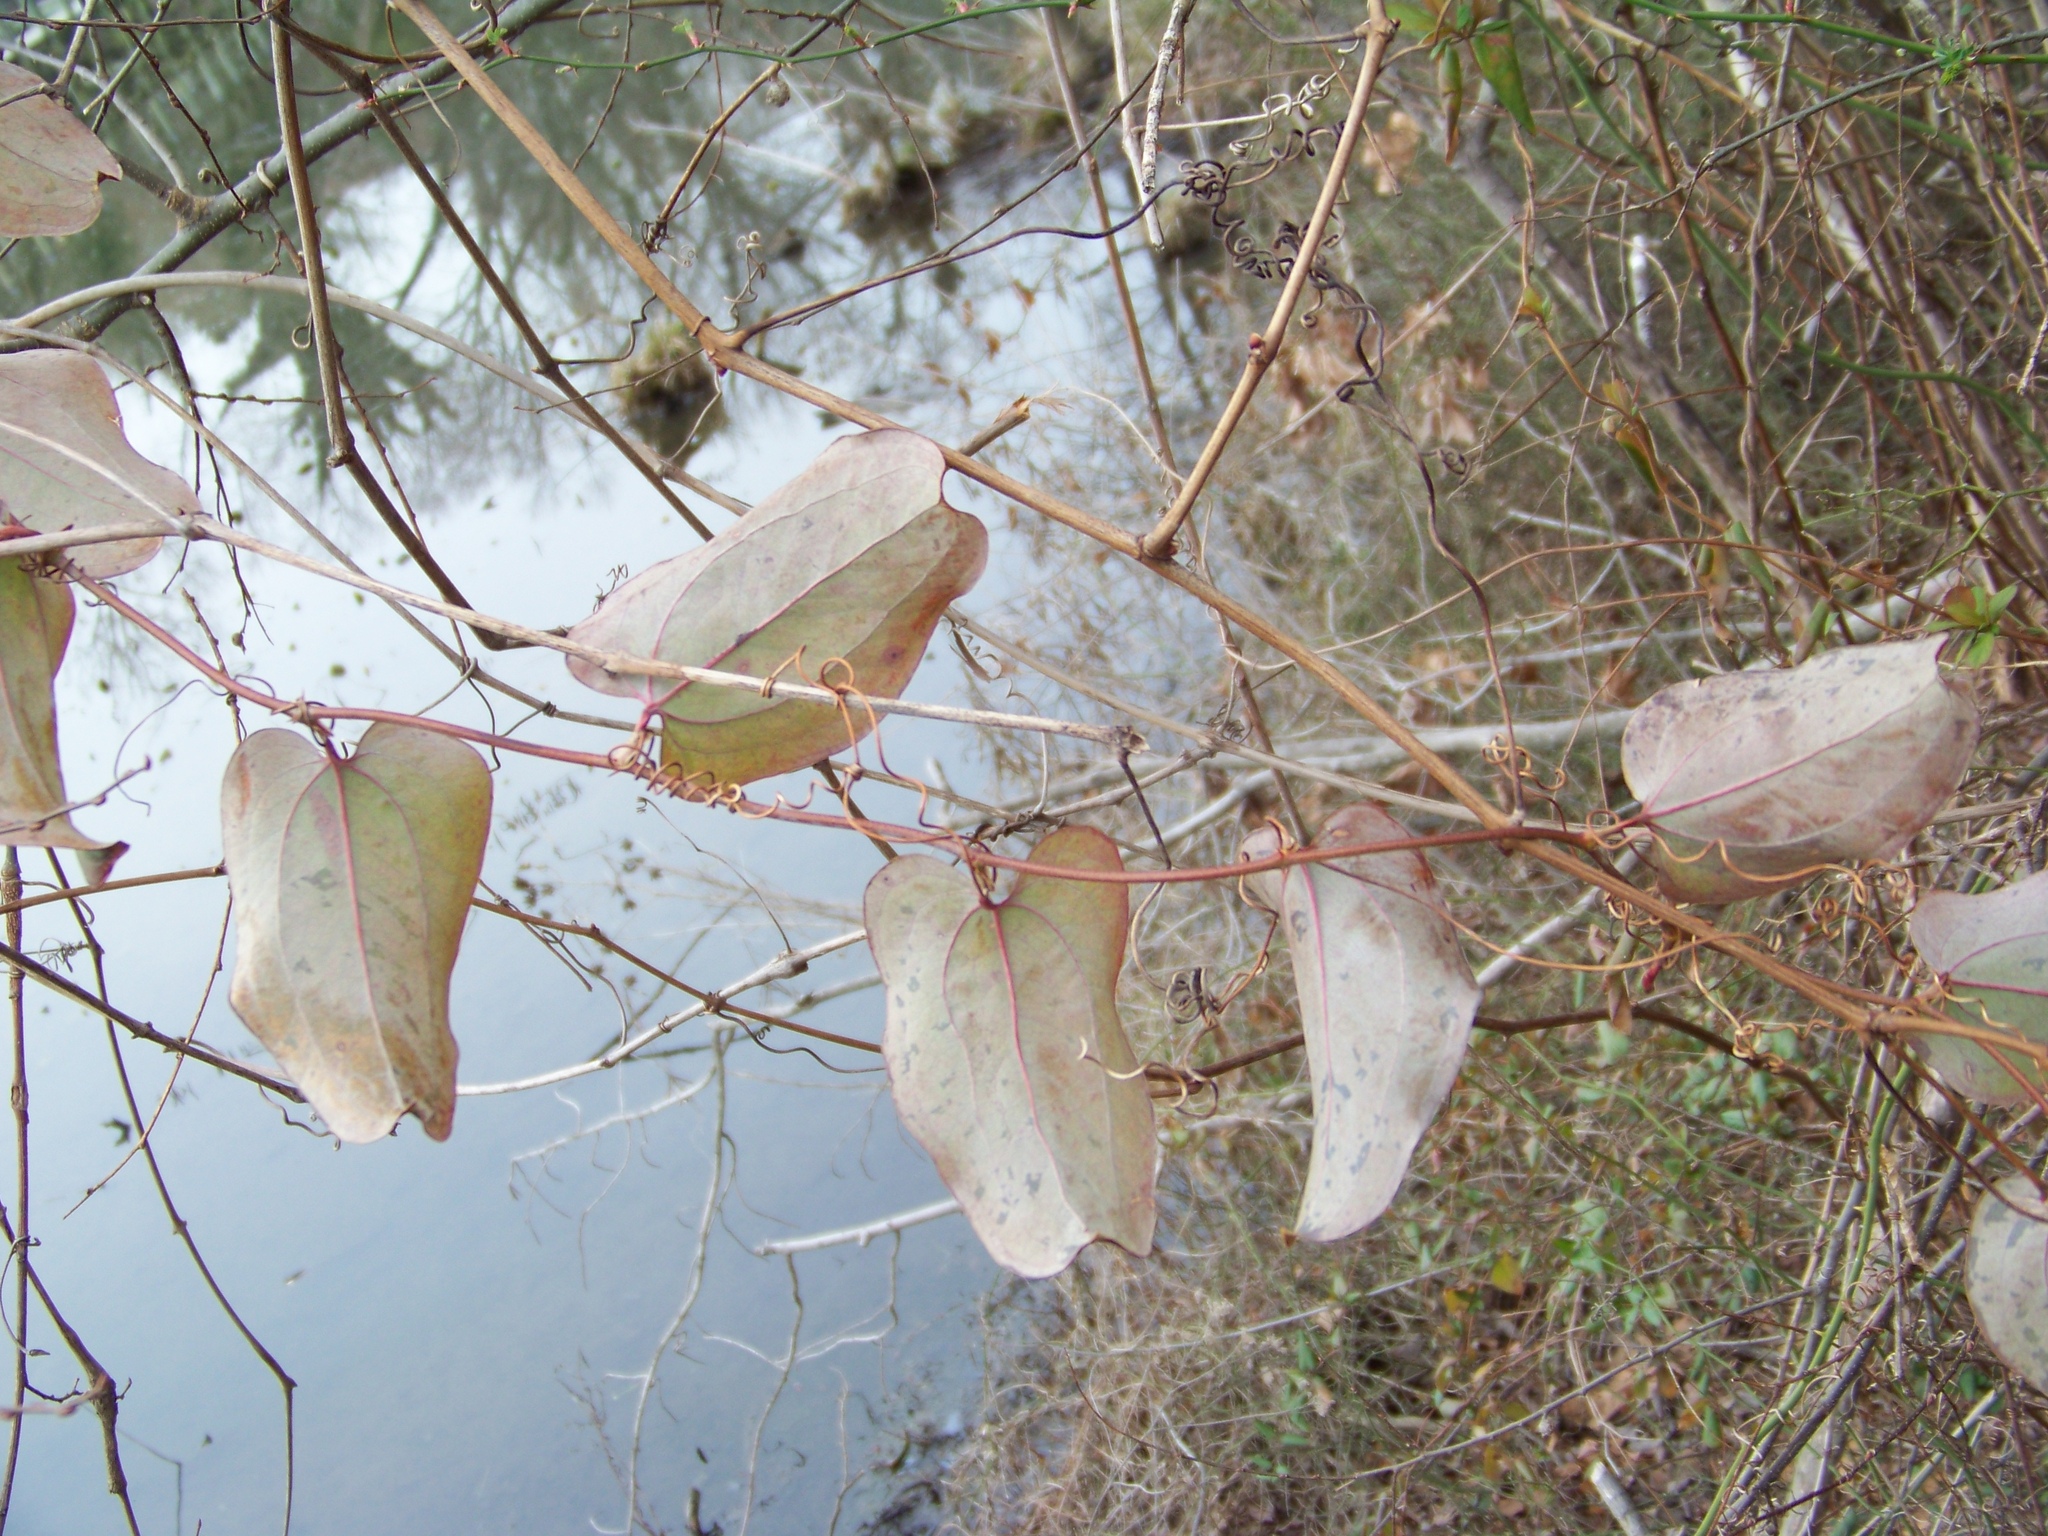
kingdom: Plantae
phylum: Tracheophyta
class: Liliopsida
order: Liliales
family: Smilacaceae
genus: Smilax
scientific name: Smilax glauca
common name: Cat greenbrier
